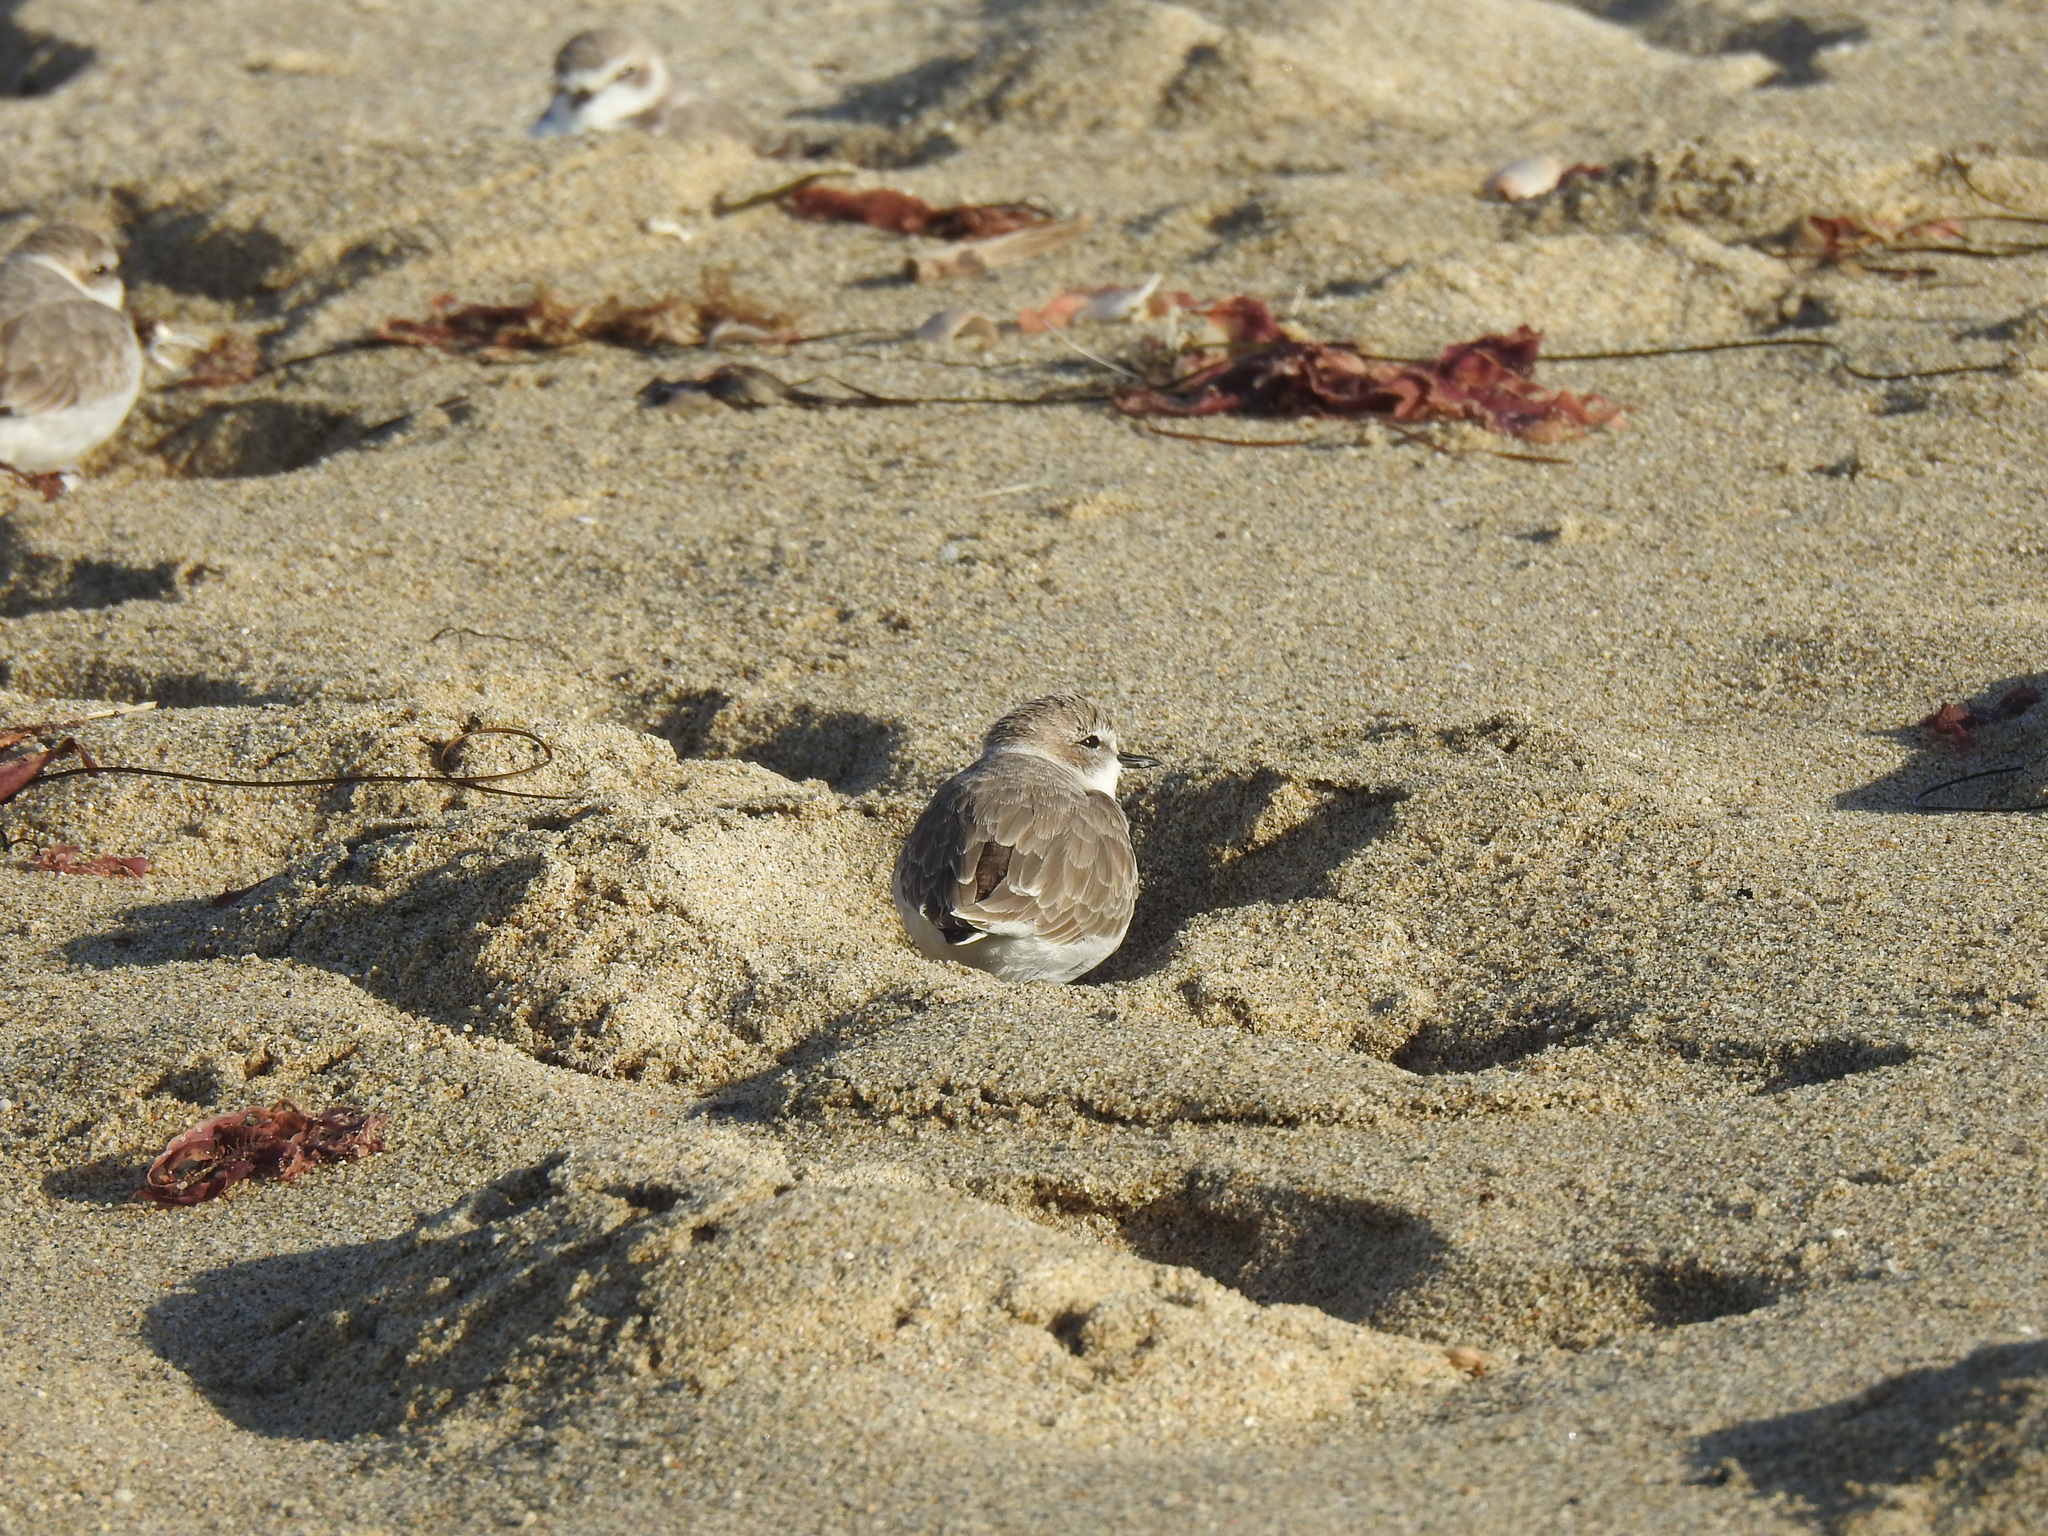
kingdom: Animalia
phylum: Chordata
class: Aves
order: Charadriiformes
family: Charadriidae
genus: Anarhynchus
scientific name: Anarhynchus
